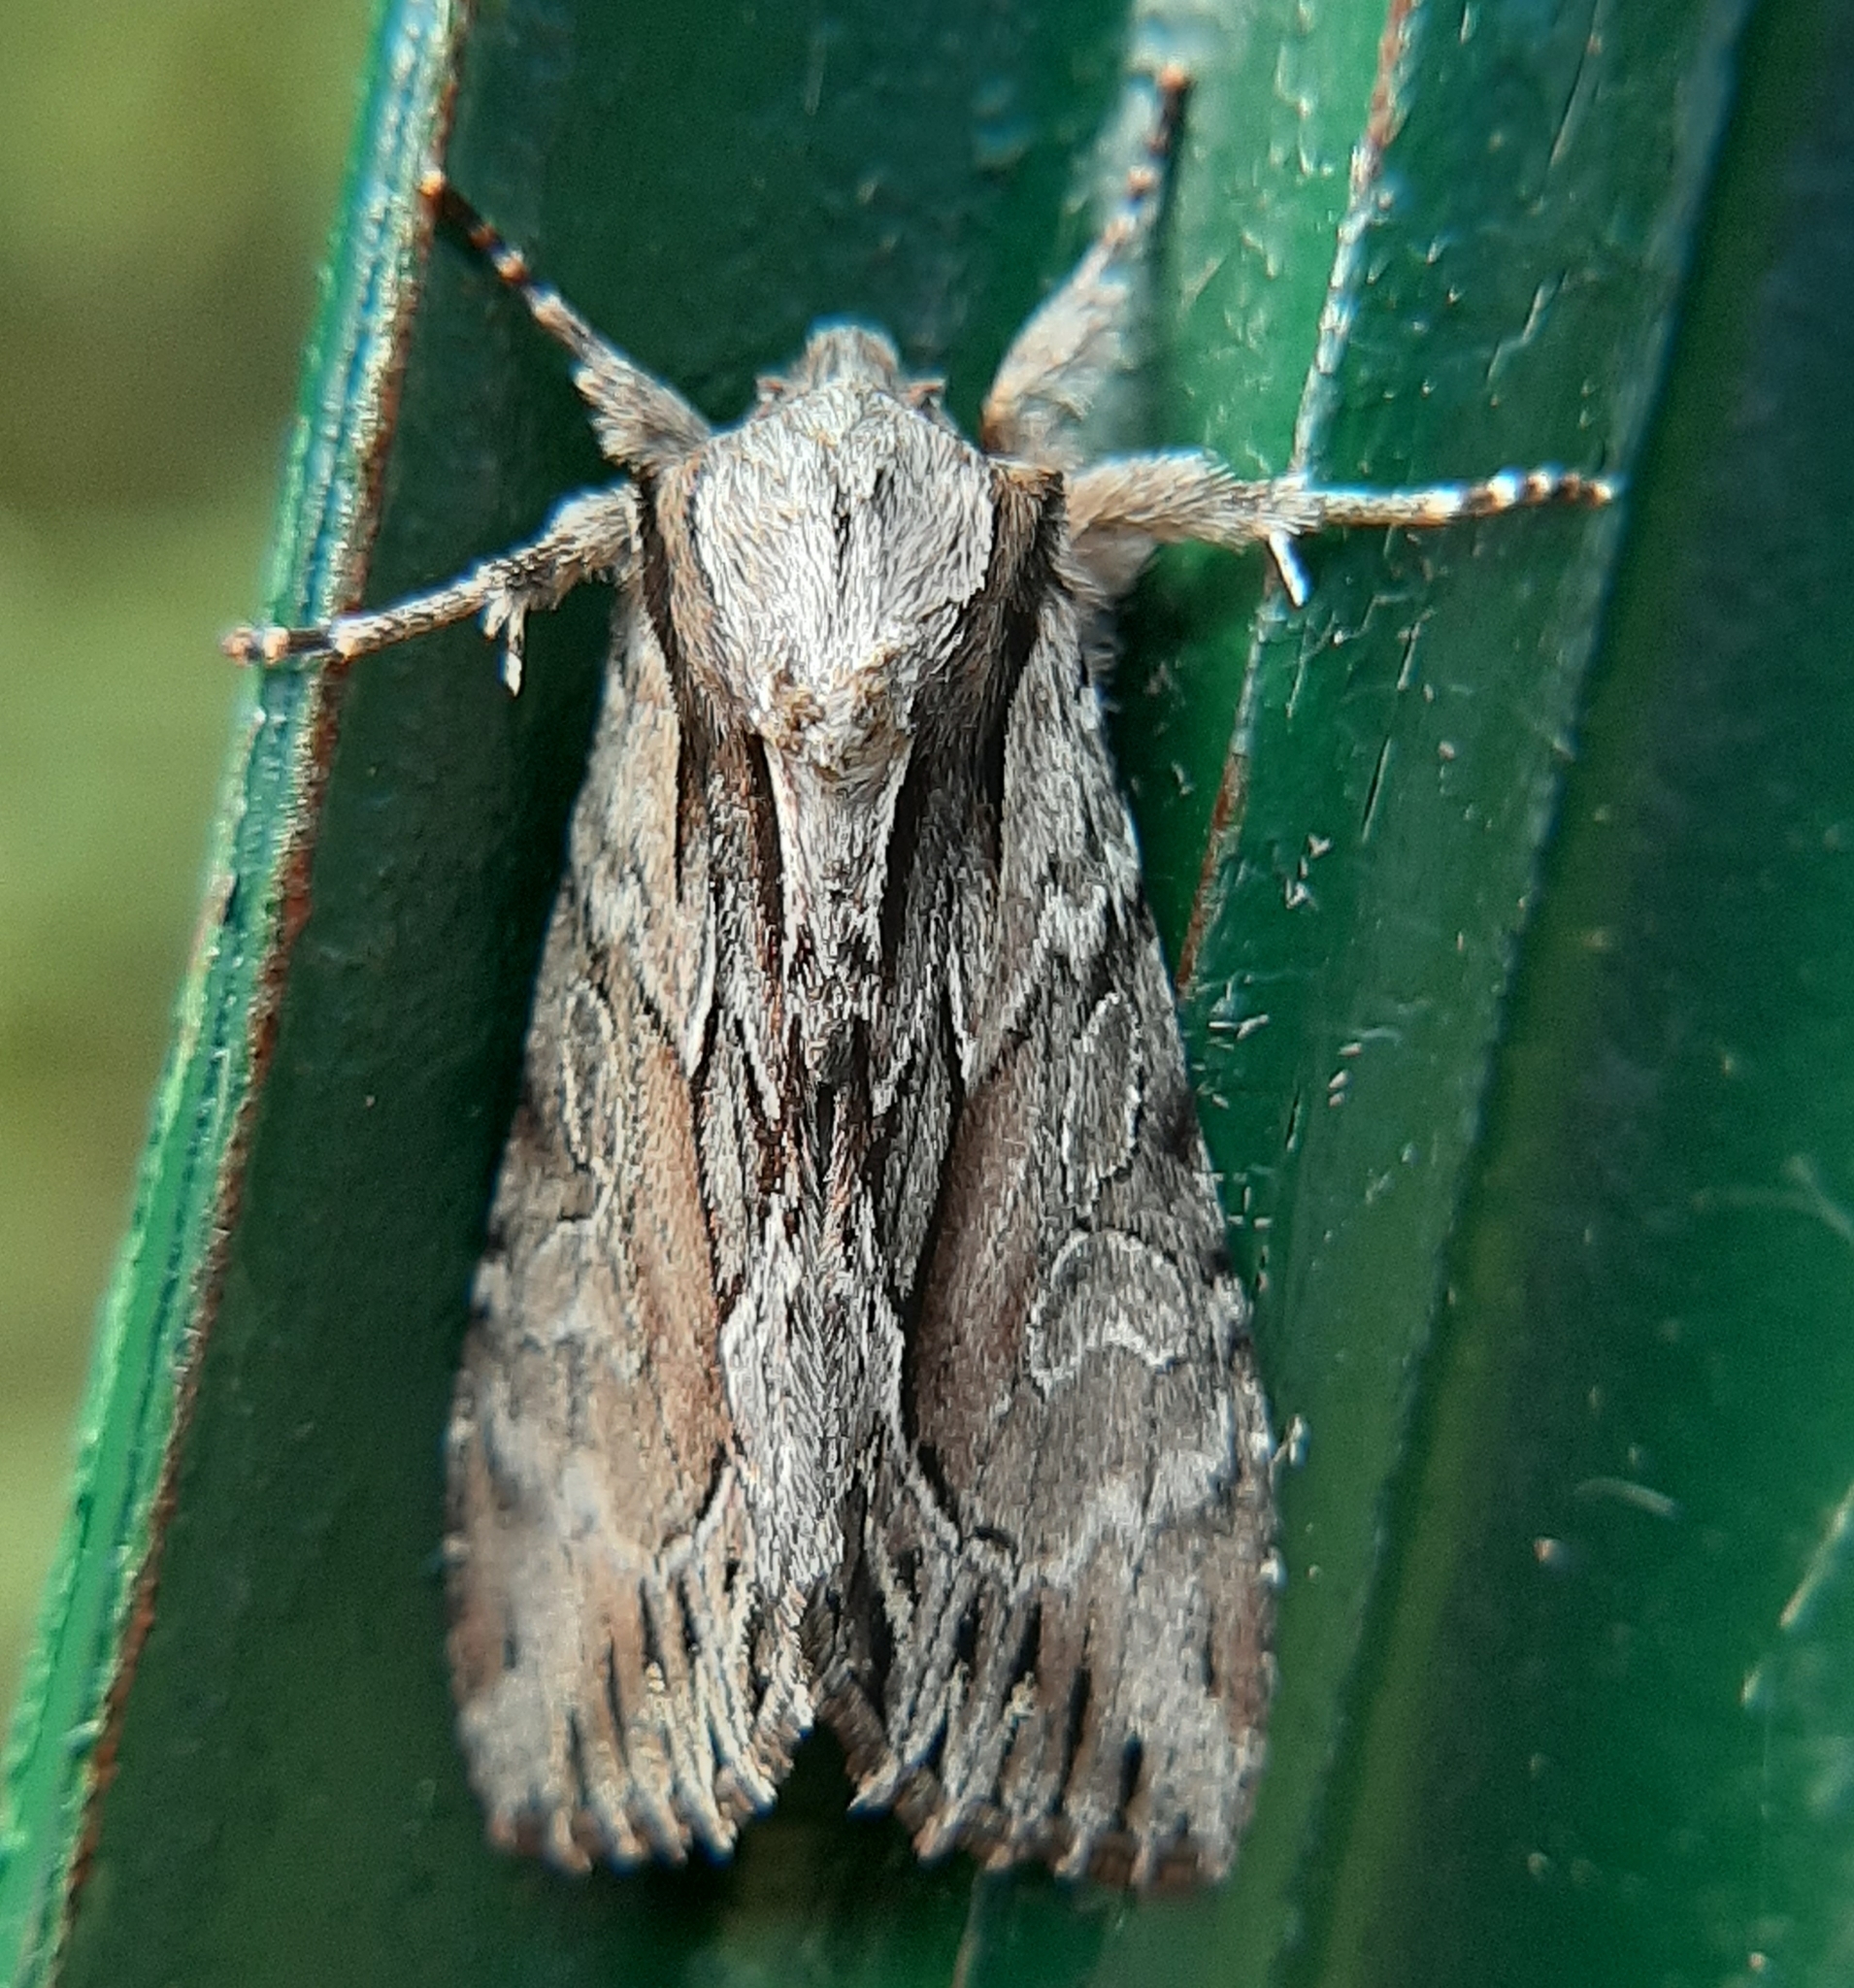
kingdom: Animalia
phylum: Arthropoda
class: Insecta
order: Lepidoptera
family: Noctuidae
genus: Hyppa
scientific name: Hyppa xylinoides
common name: Common hyppa moth
